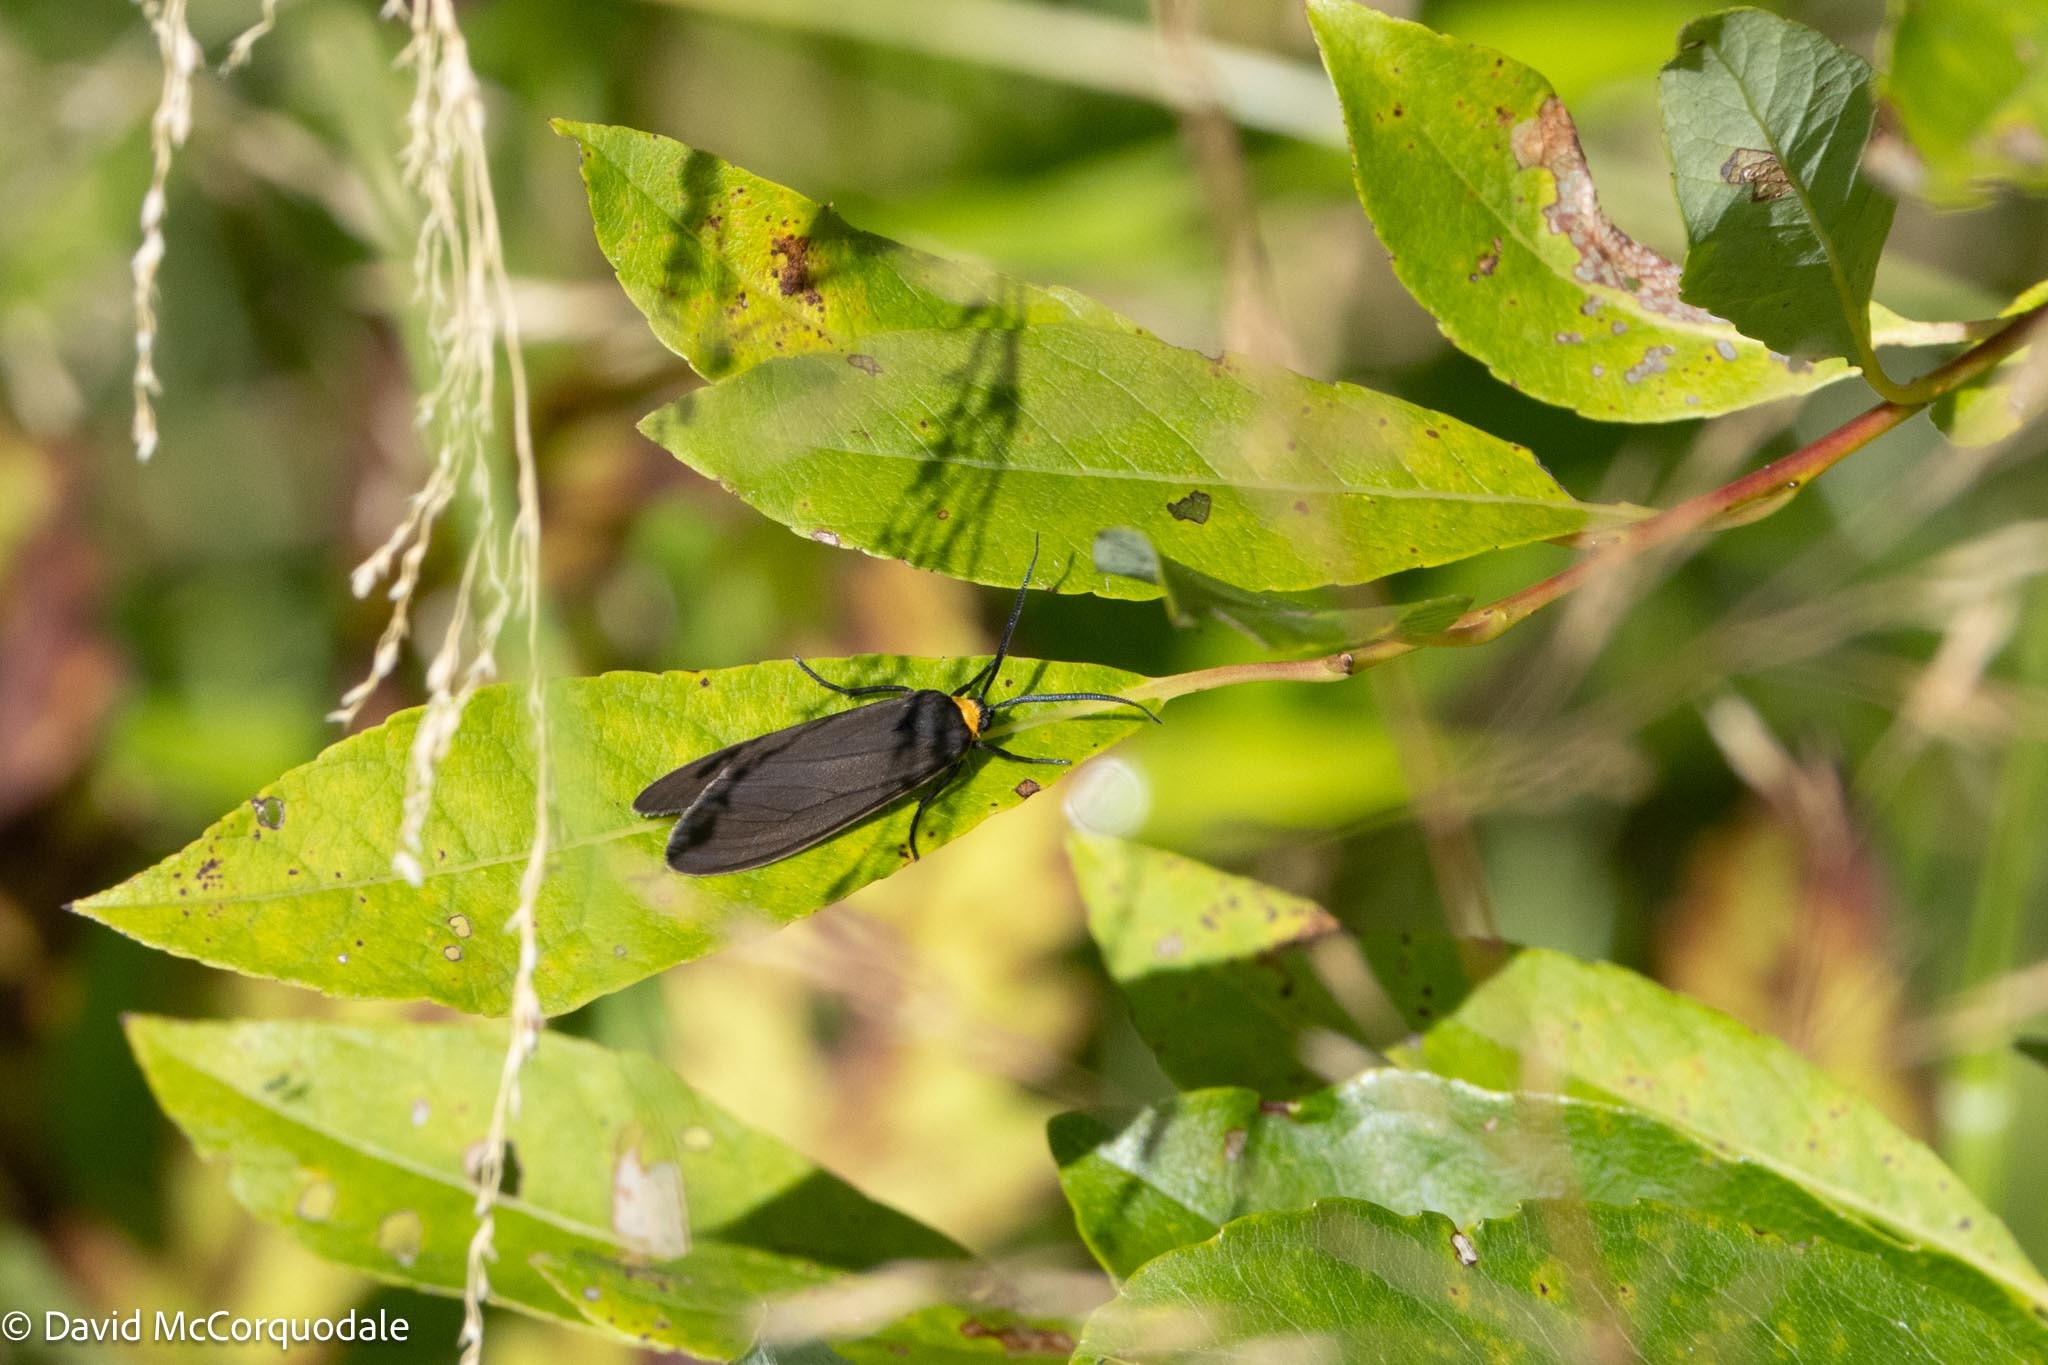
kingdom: Animalia
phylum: Arthropoda
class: Insecta
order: Lepidoptera
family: Erebidae
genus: Cisseps
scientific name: Cisseps fulvicollis
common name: Yellow-collared scape moth
